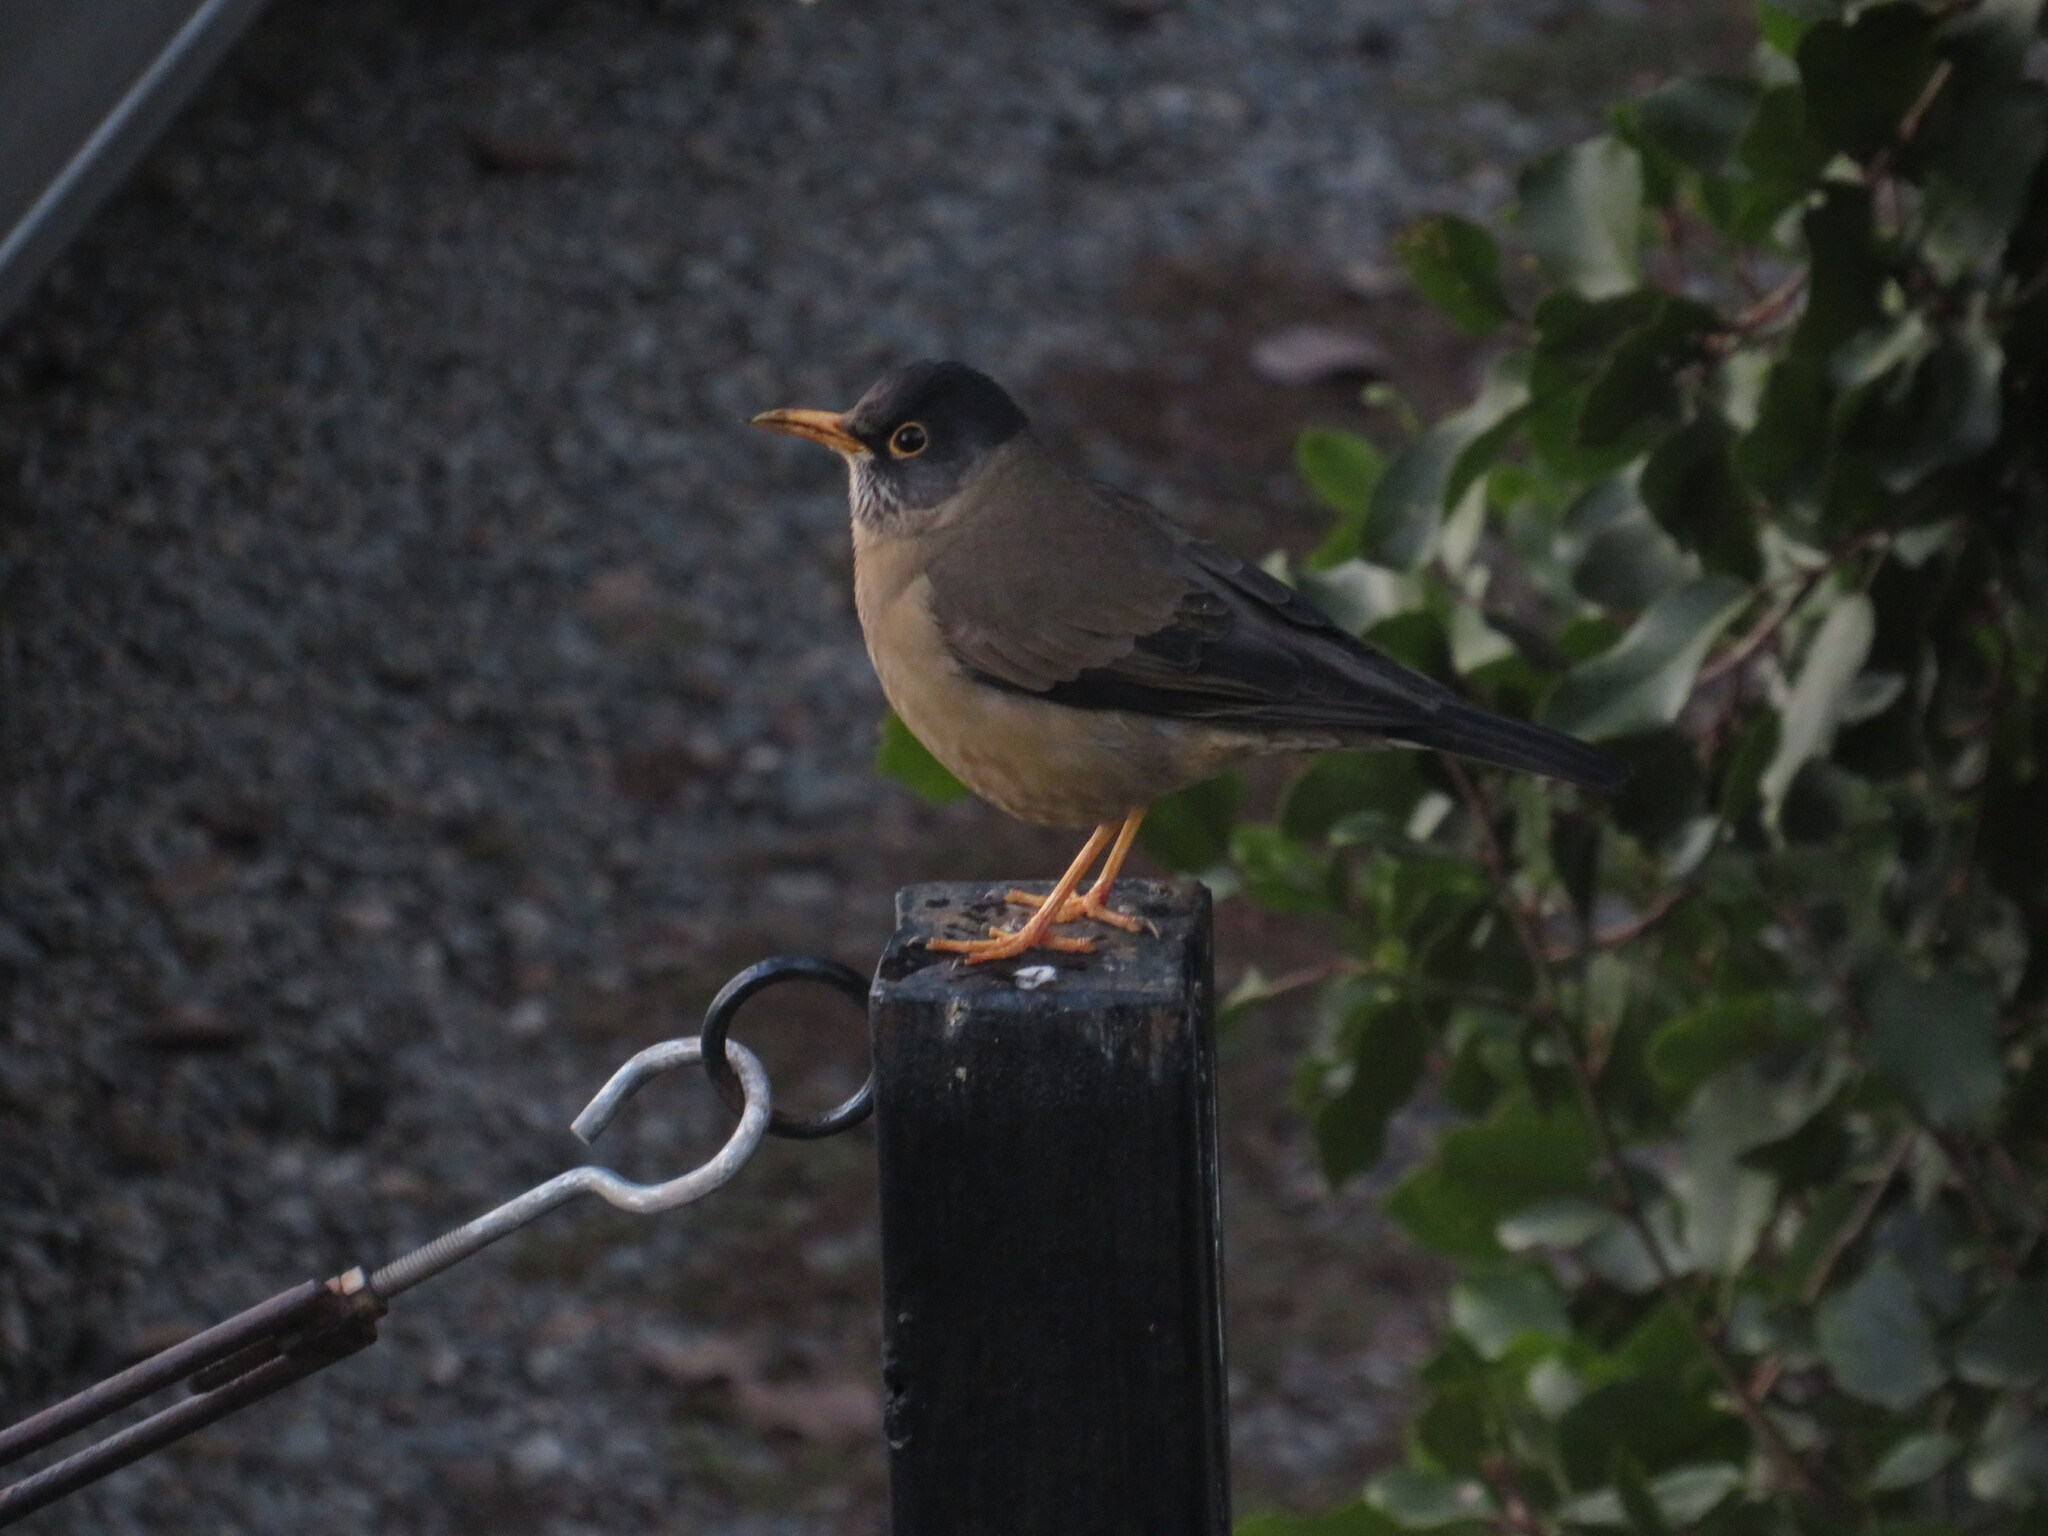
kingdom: Animalia
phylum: Chordata
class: Aves
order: Passeriformes
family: Turdidae
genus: Turdus
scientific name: Turdus falcklandii
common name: Austral thrush
